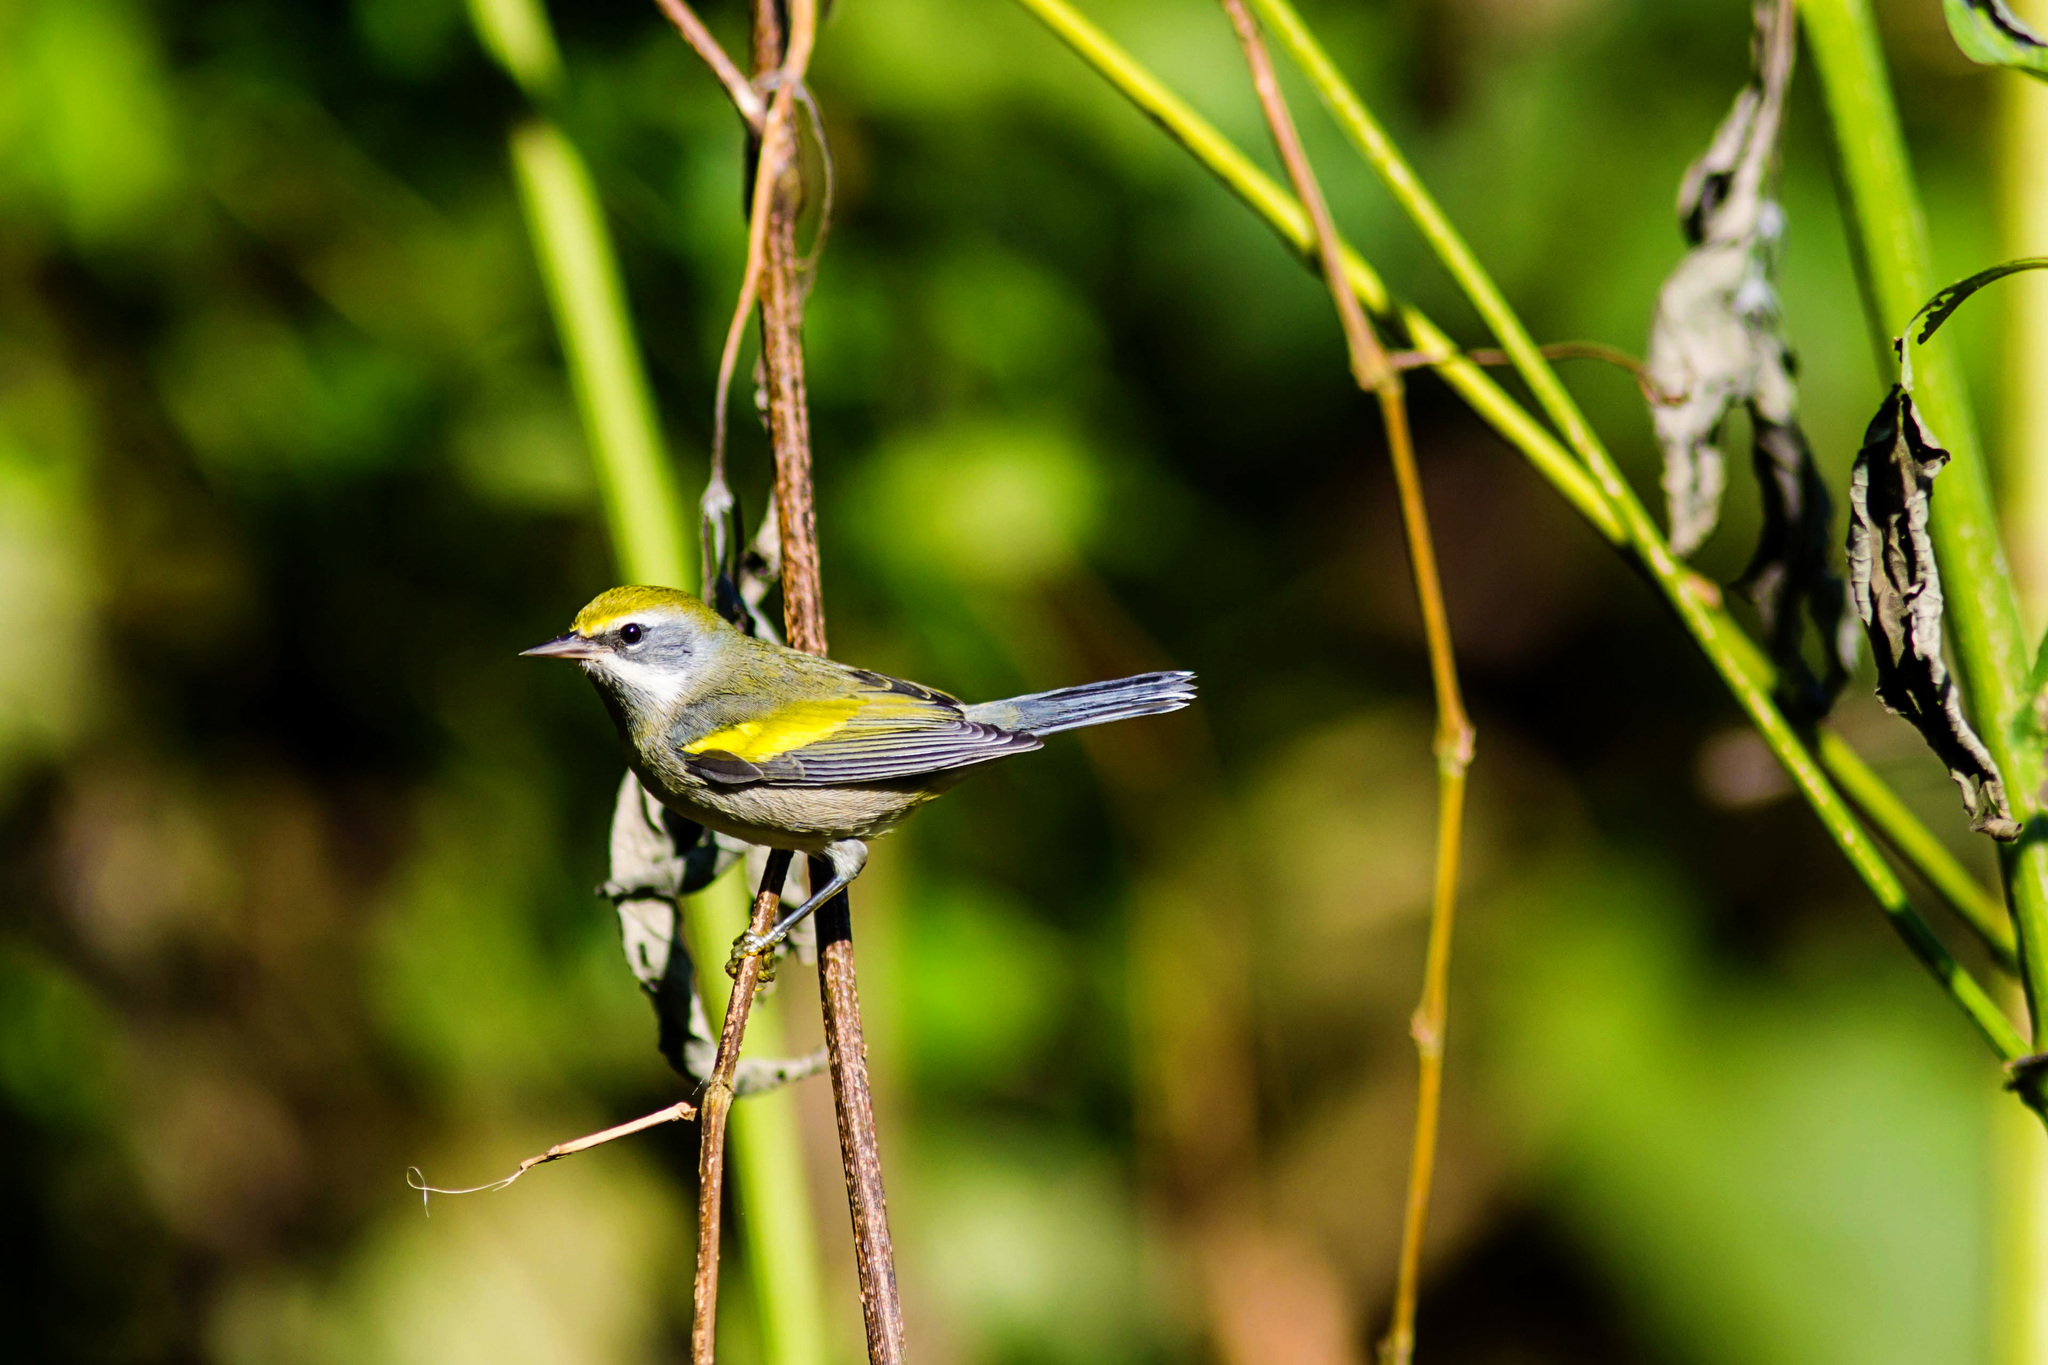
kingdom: Animalia
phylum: Chordata
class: Aves
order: Passeriformes
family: Parulidae
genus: Vermivora
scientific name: Vermivora chrysoptera
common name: Golden-winged warbler
